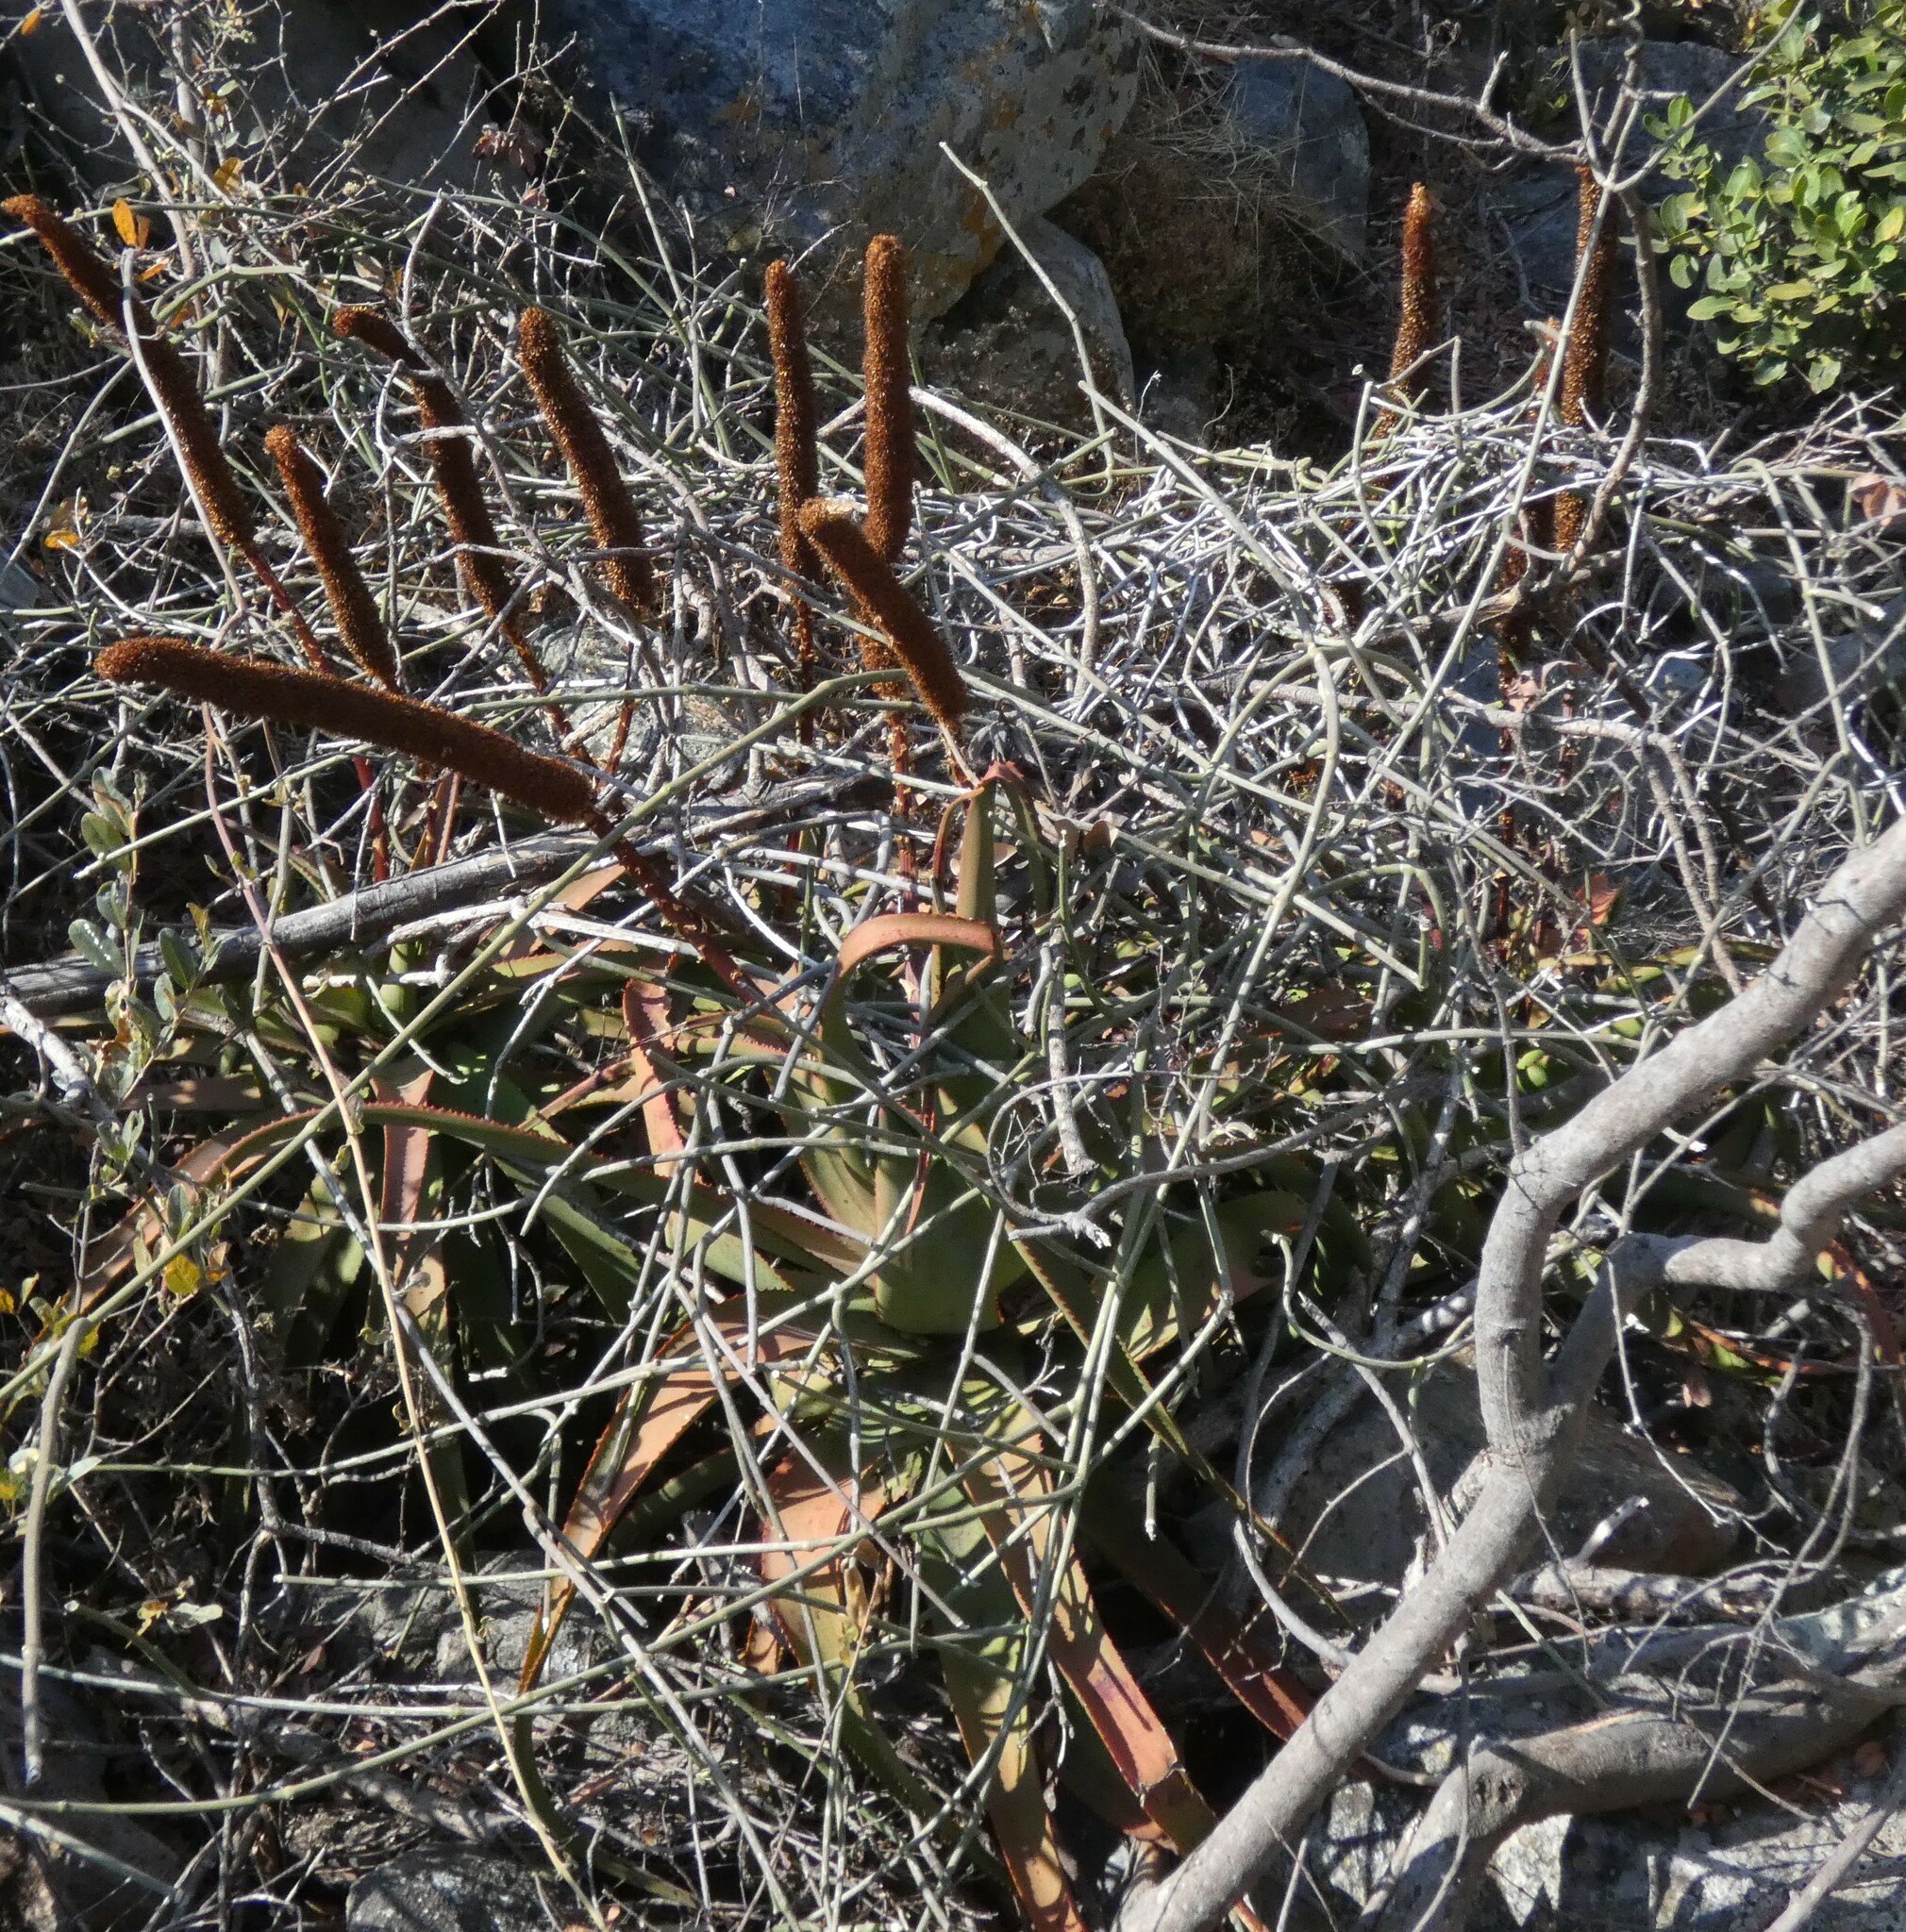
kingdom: Plantae
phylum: Tracheophyta
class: Liliopsida
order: Asparagales
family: Asphodelaceae
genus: Aloe
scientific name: Aloe spicata
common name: Gazaland aloe
